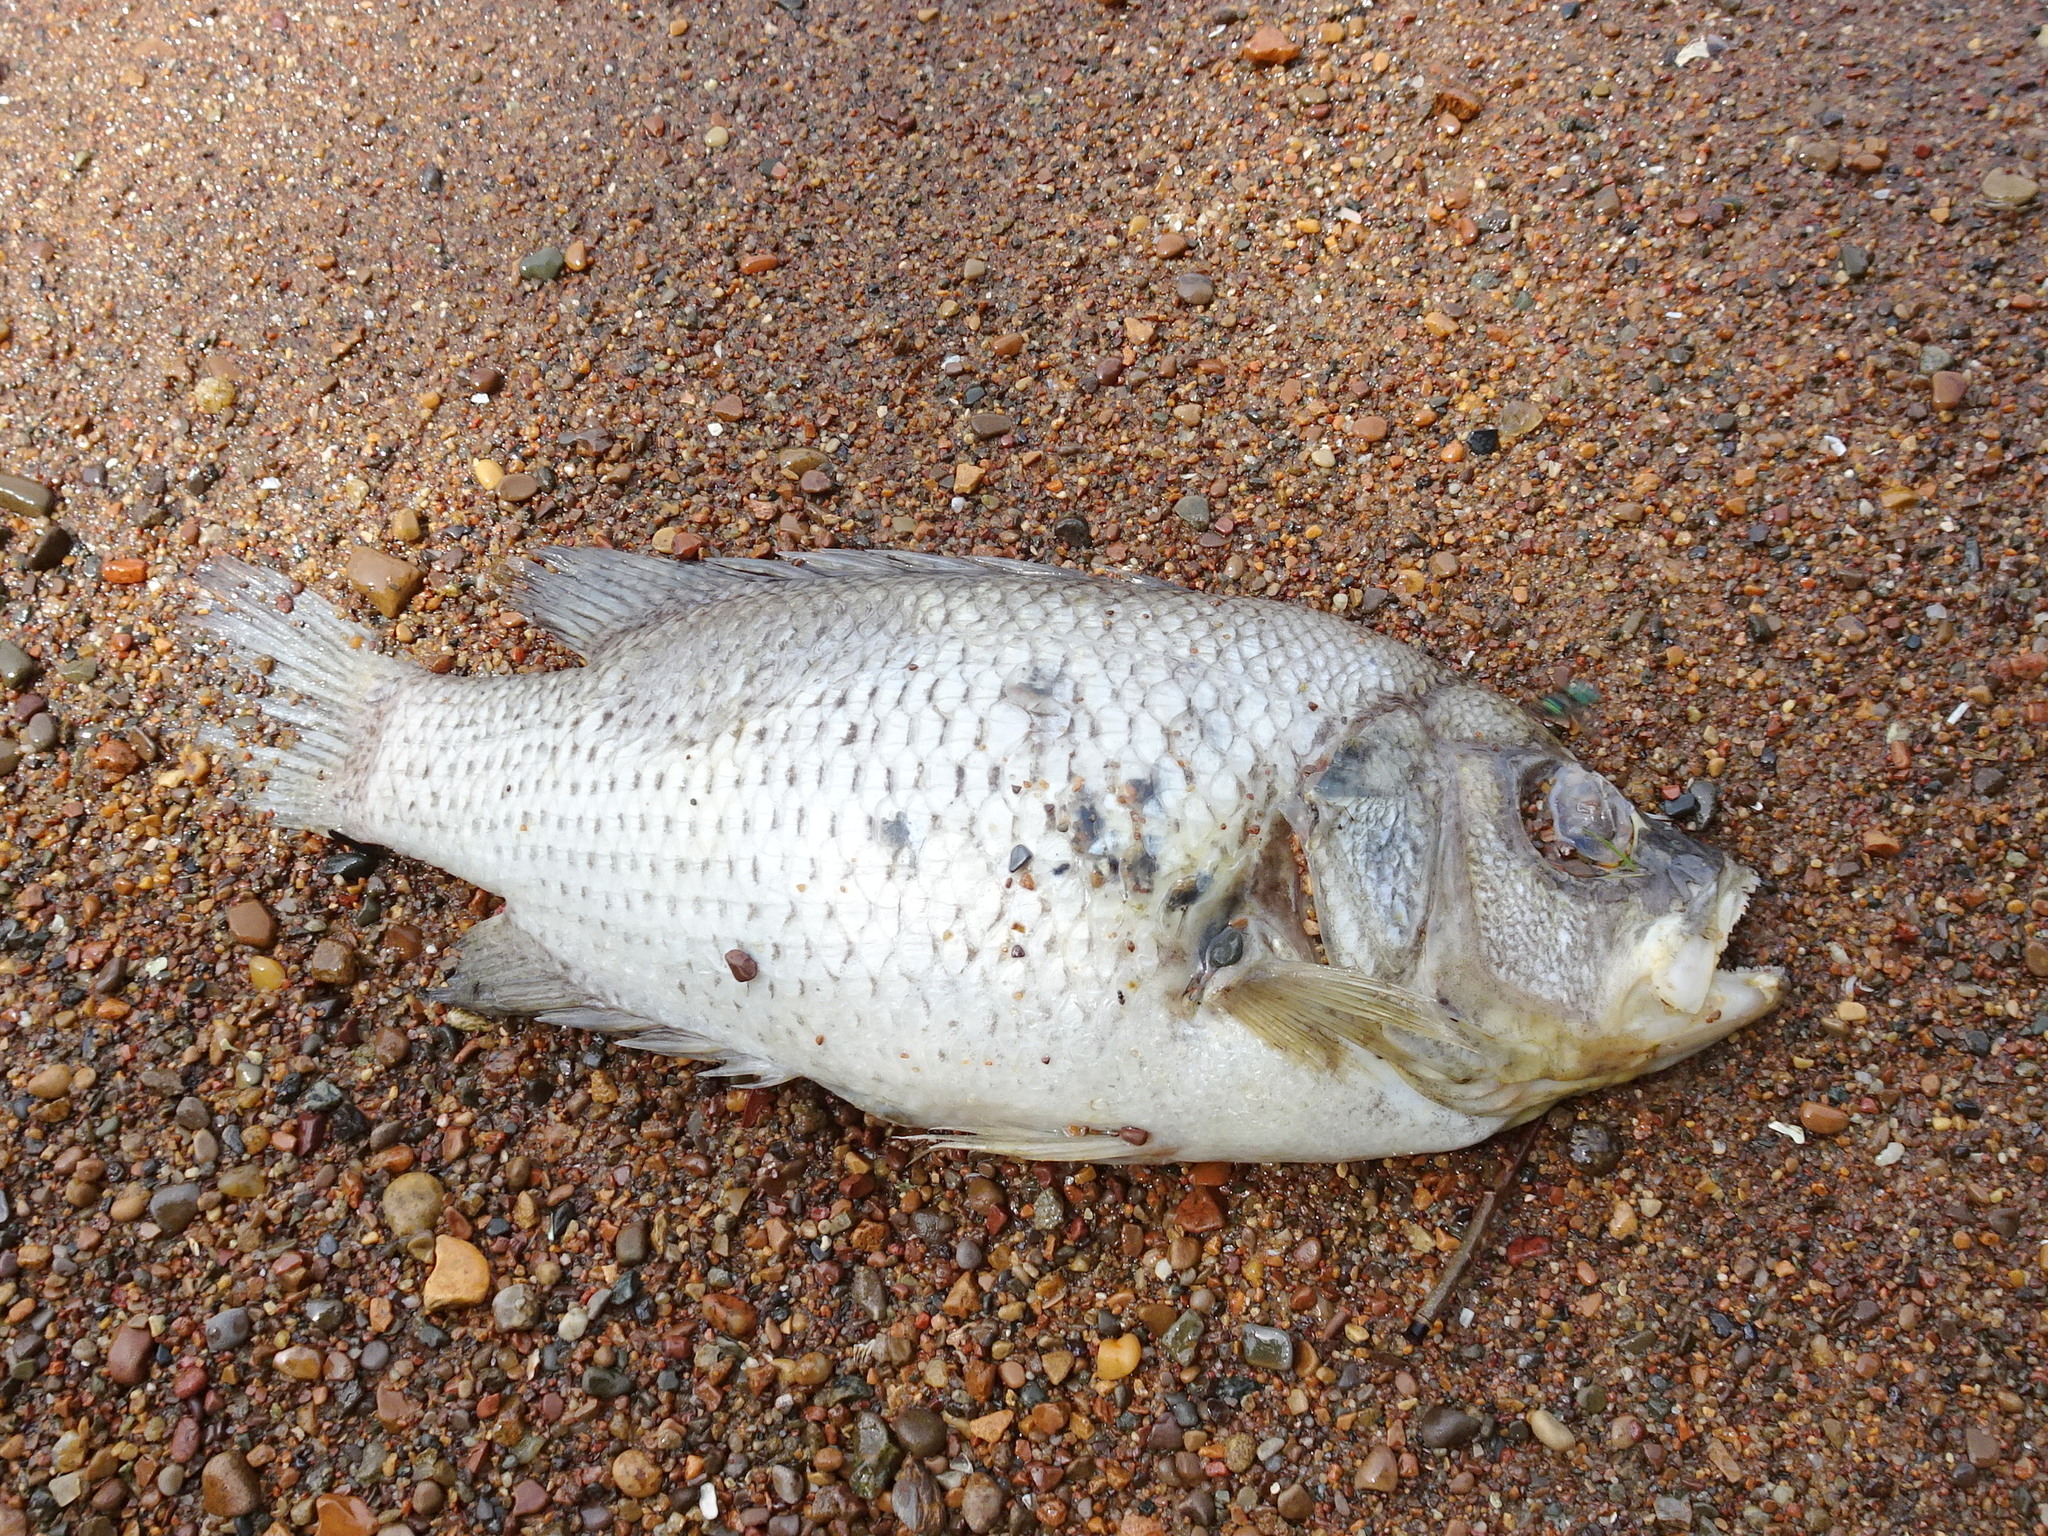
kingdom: Animalia
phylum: Chordata
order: Perciformes
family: Centrarchidae
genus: Ambloplites
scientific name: Ambloplites rupestris
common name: Rock bass
